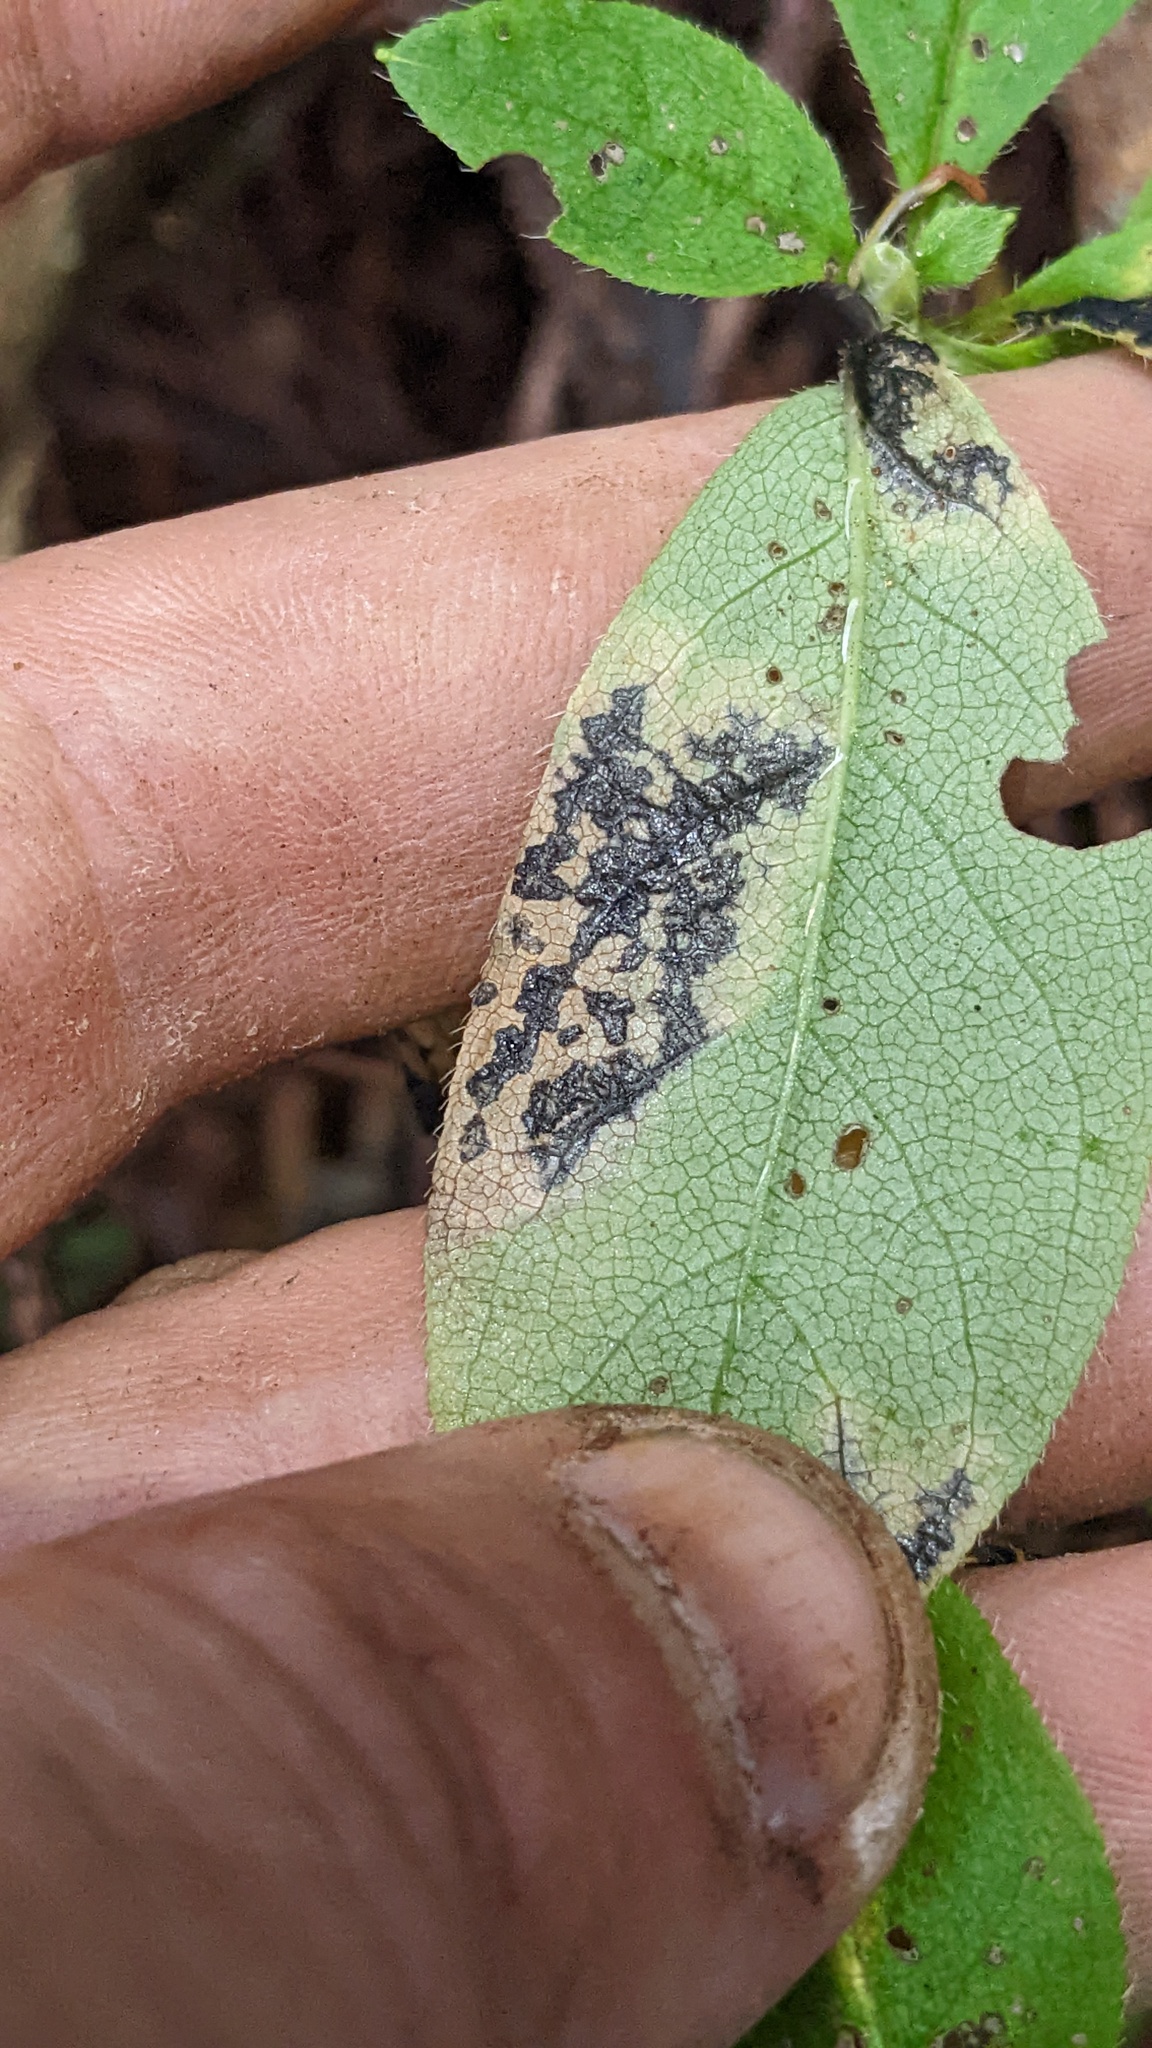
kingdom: Fungi
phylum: Ascomycota
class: Leotiomycetes
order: Rhytismatales
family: Rhytismataceae
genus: Rhytisma
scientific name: Rhytisma
